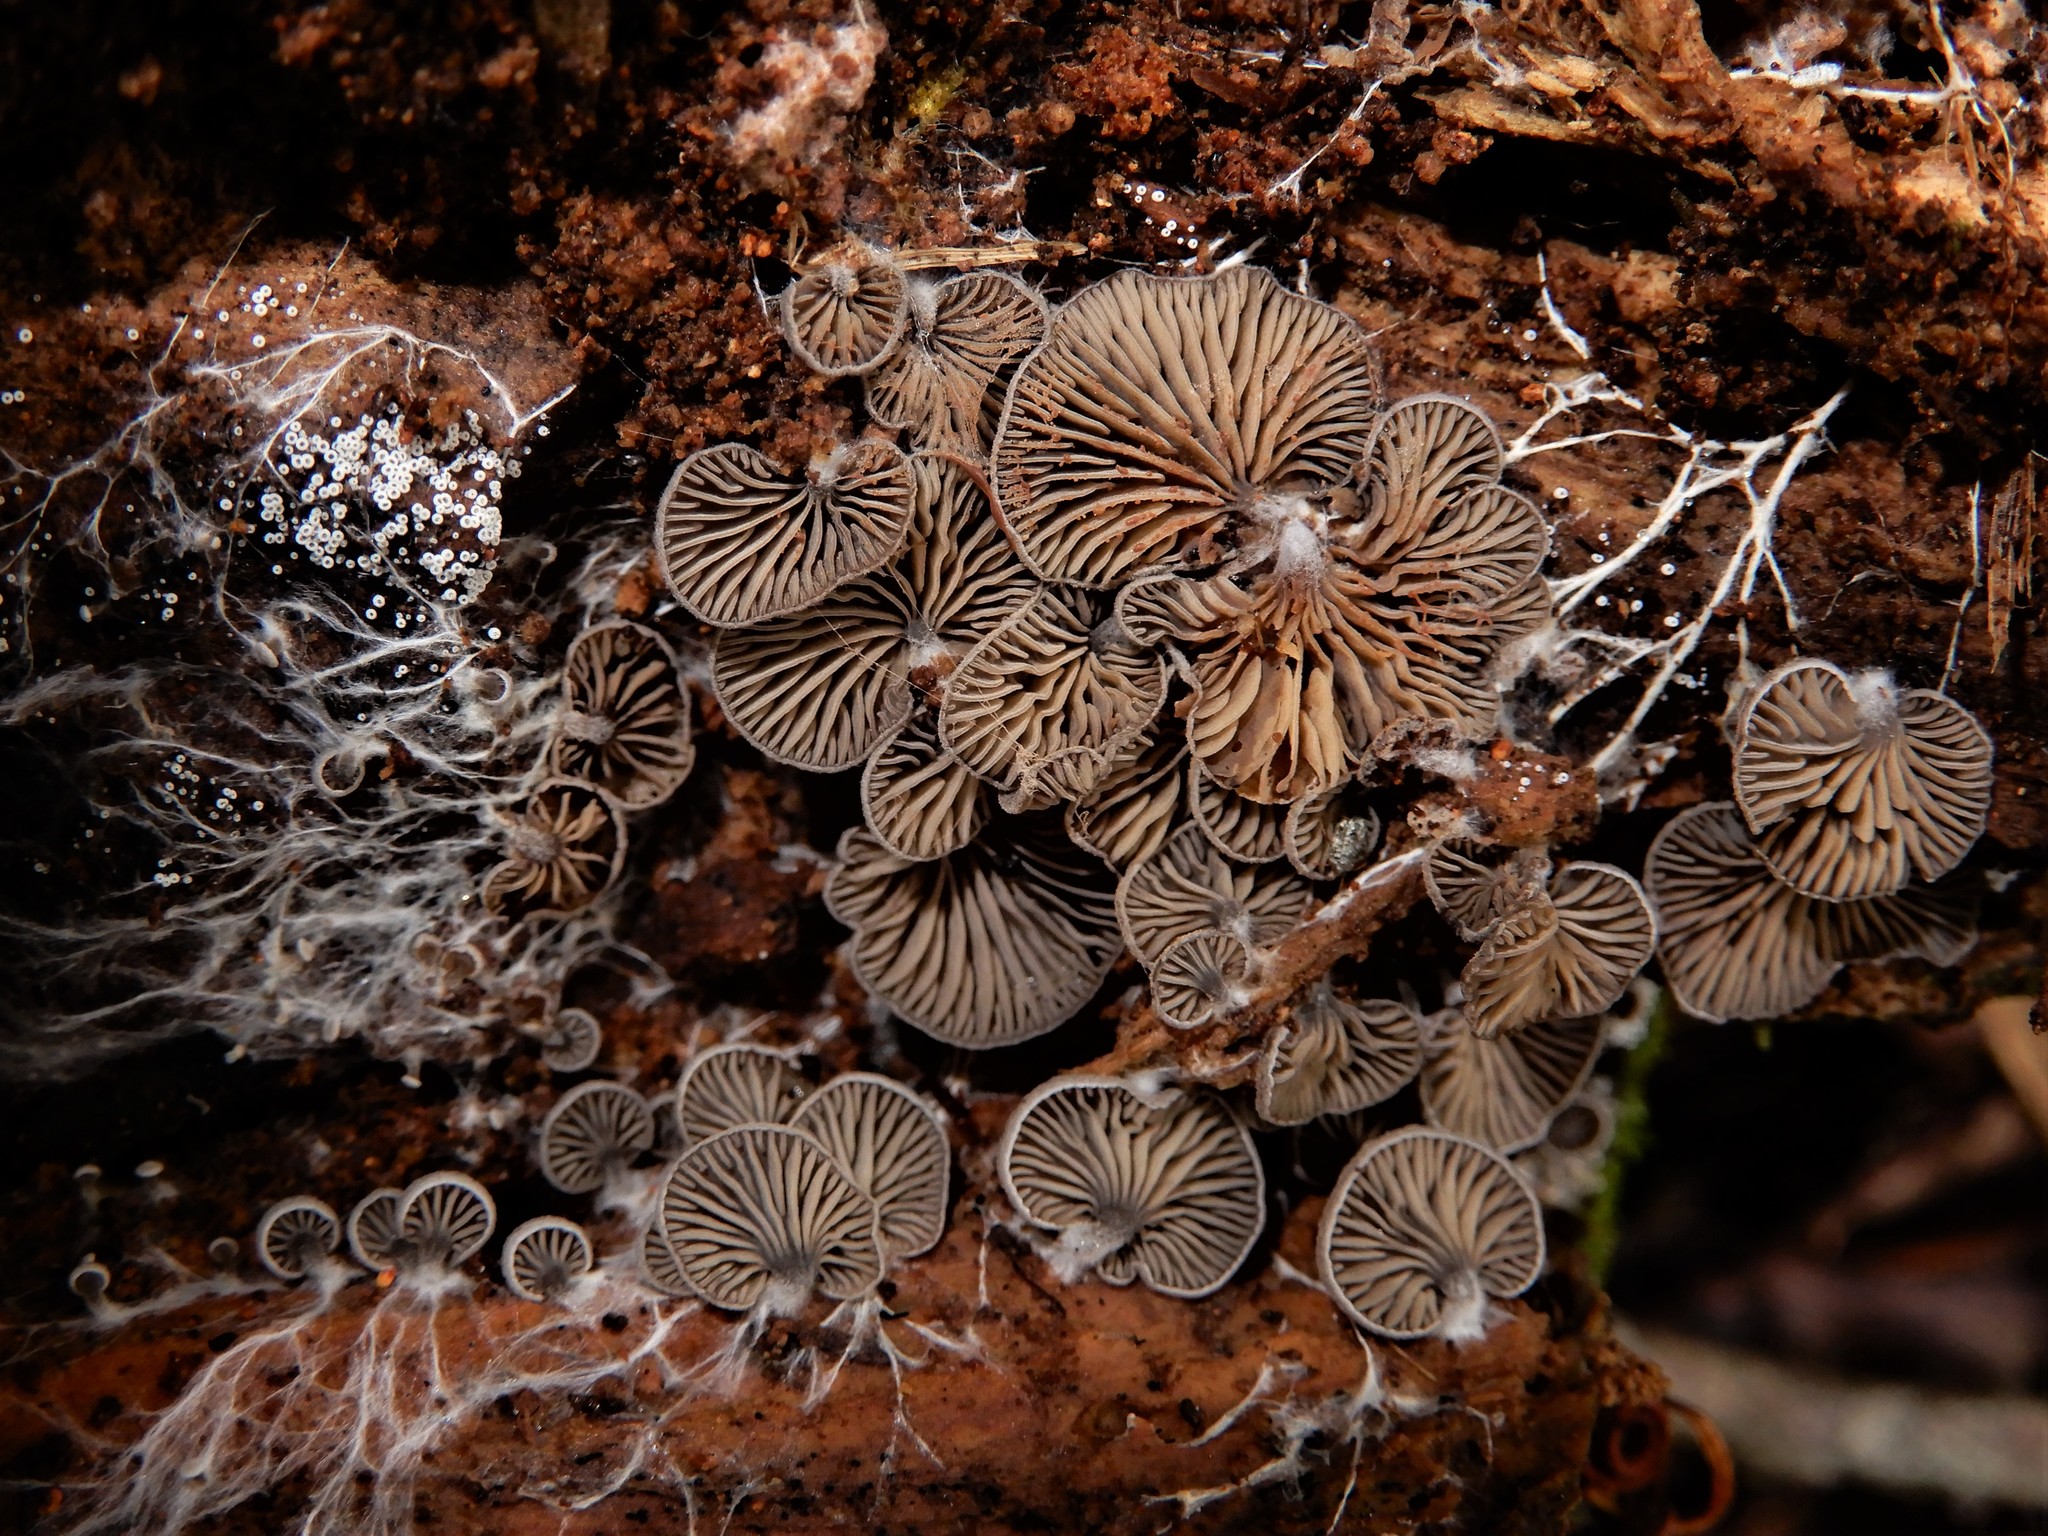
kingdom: Fungi
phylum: Basidiomycota
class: Agaricomycetes
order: Agaricales
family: Entolomataceae
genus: Clitopilus
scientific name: Clitopilus conchatus
